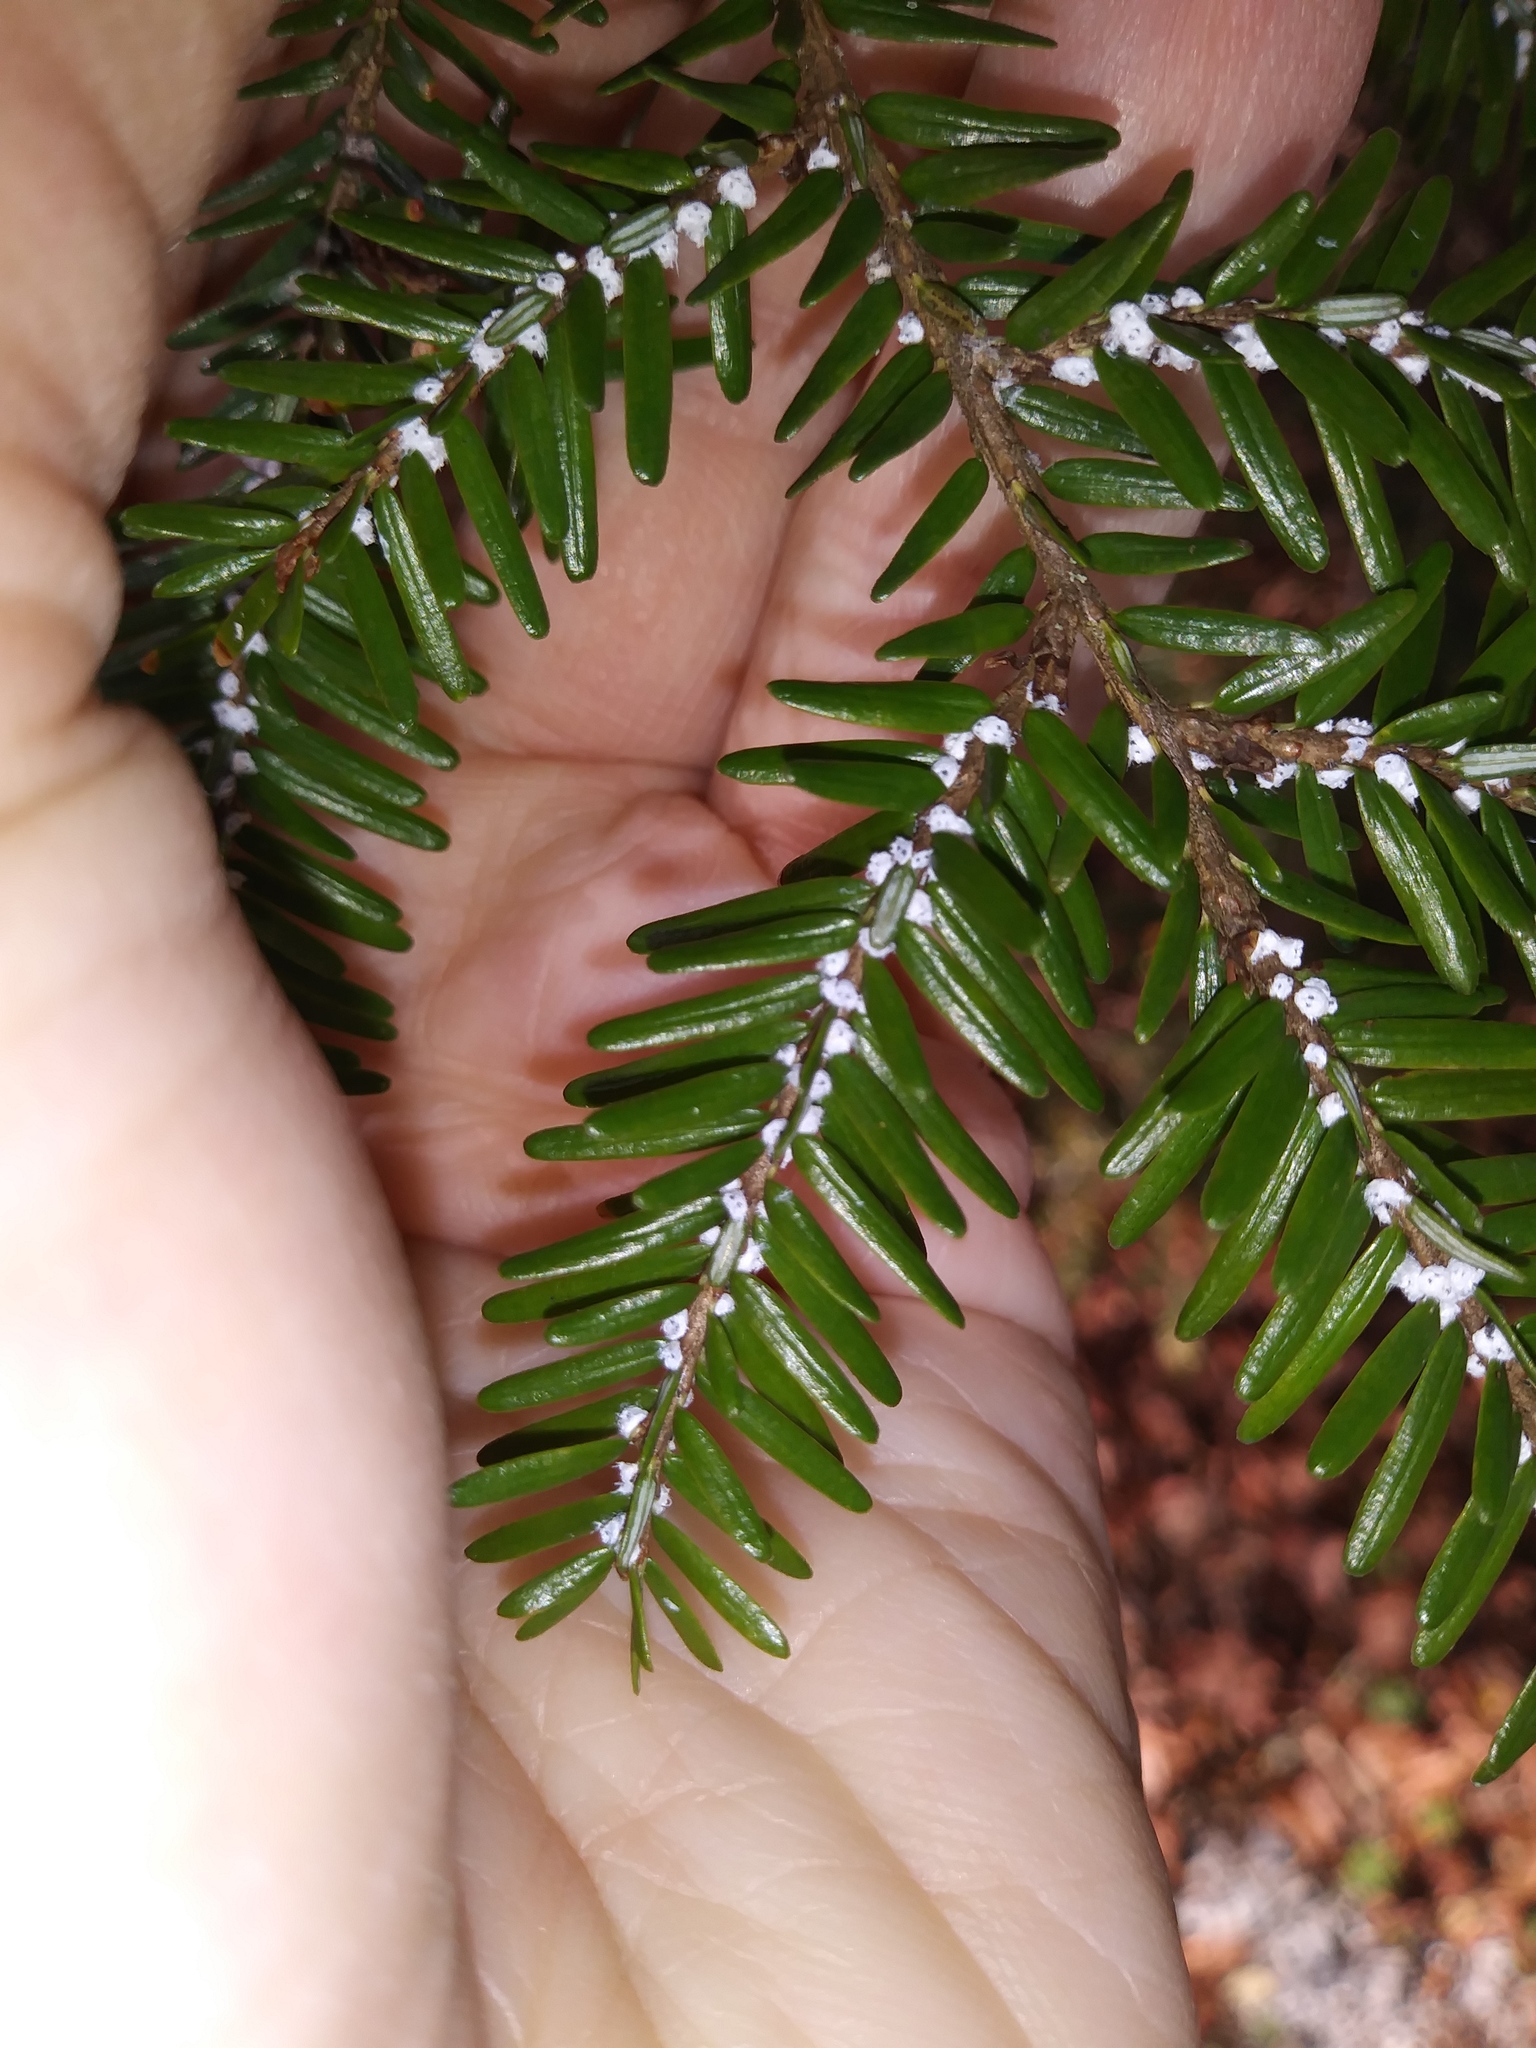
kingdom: Animalia
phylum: Arthropoda
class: Insecta
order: Hemiptera
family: Adelgidae
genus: Adelges
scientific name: Adelges tsugae
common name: Hemlock woolly adelgid
